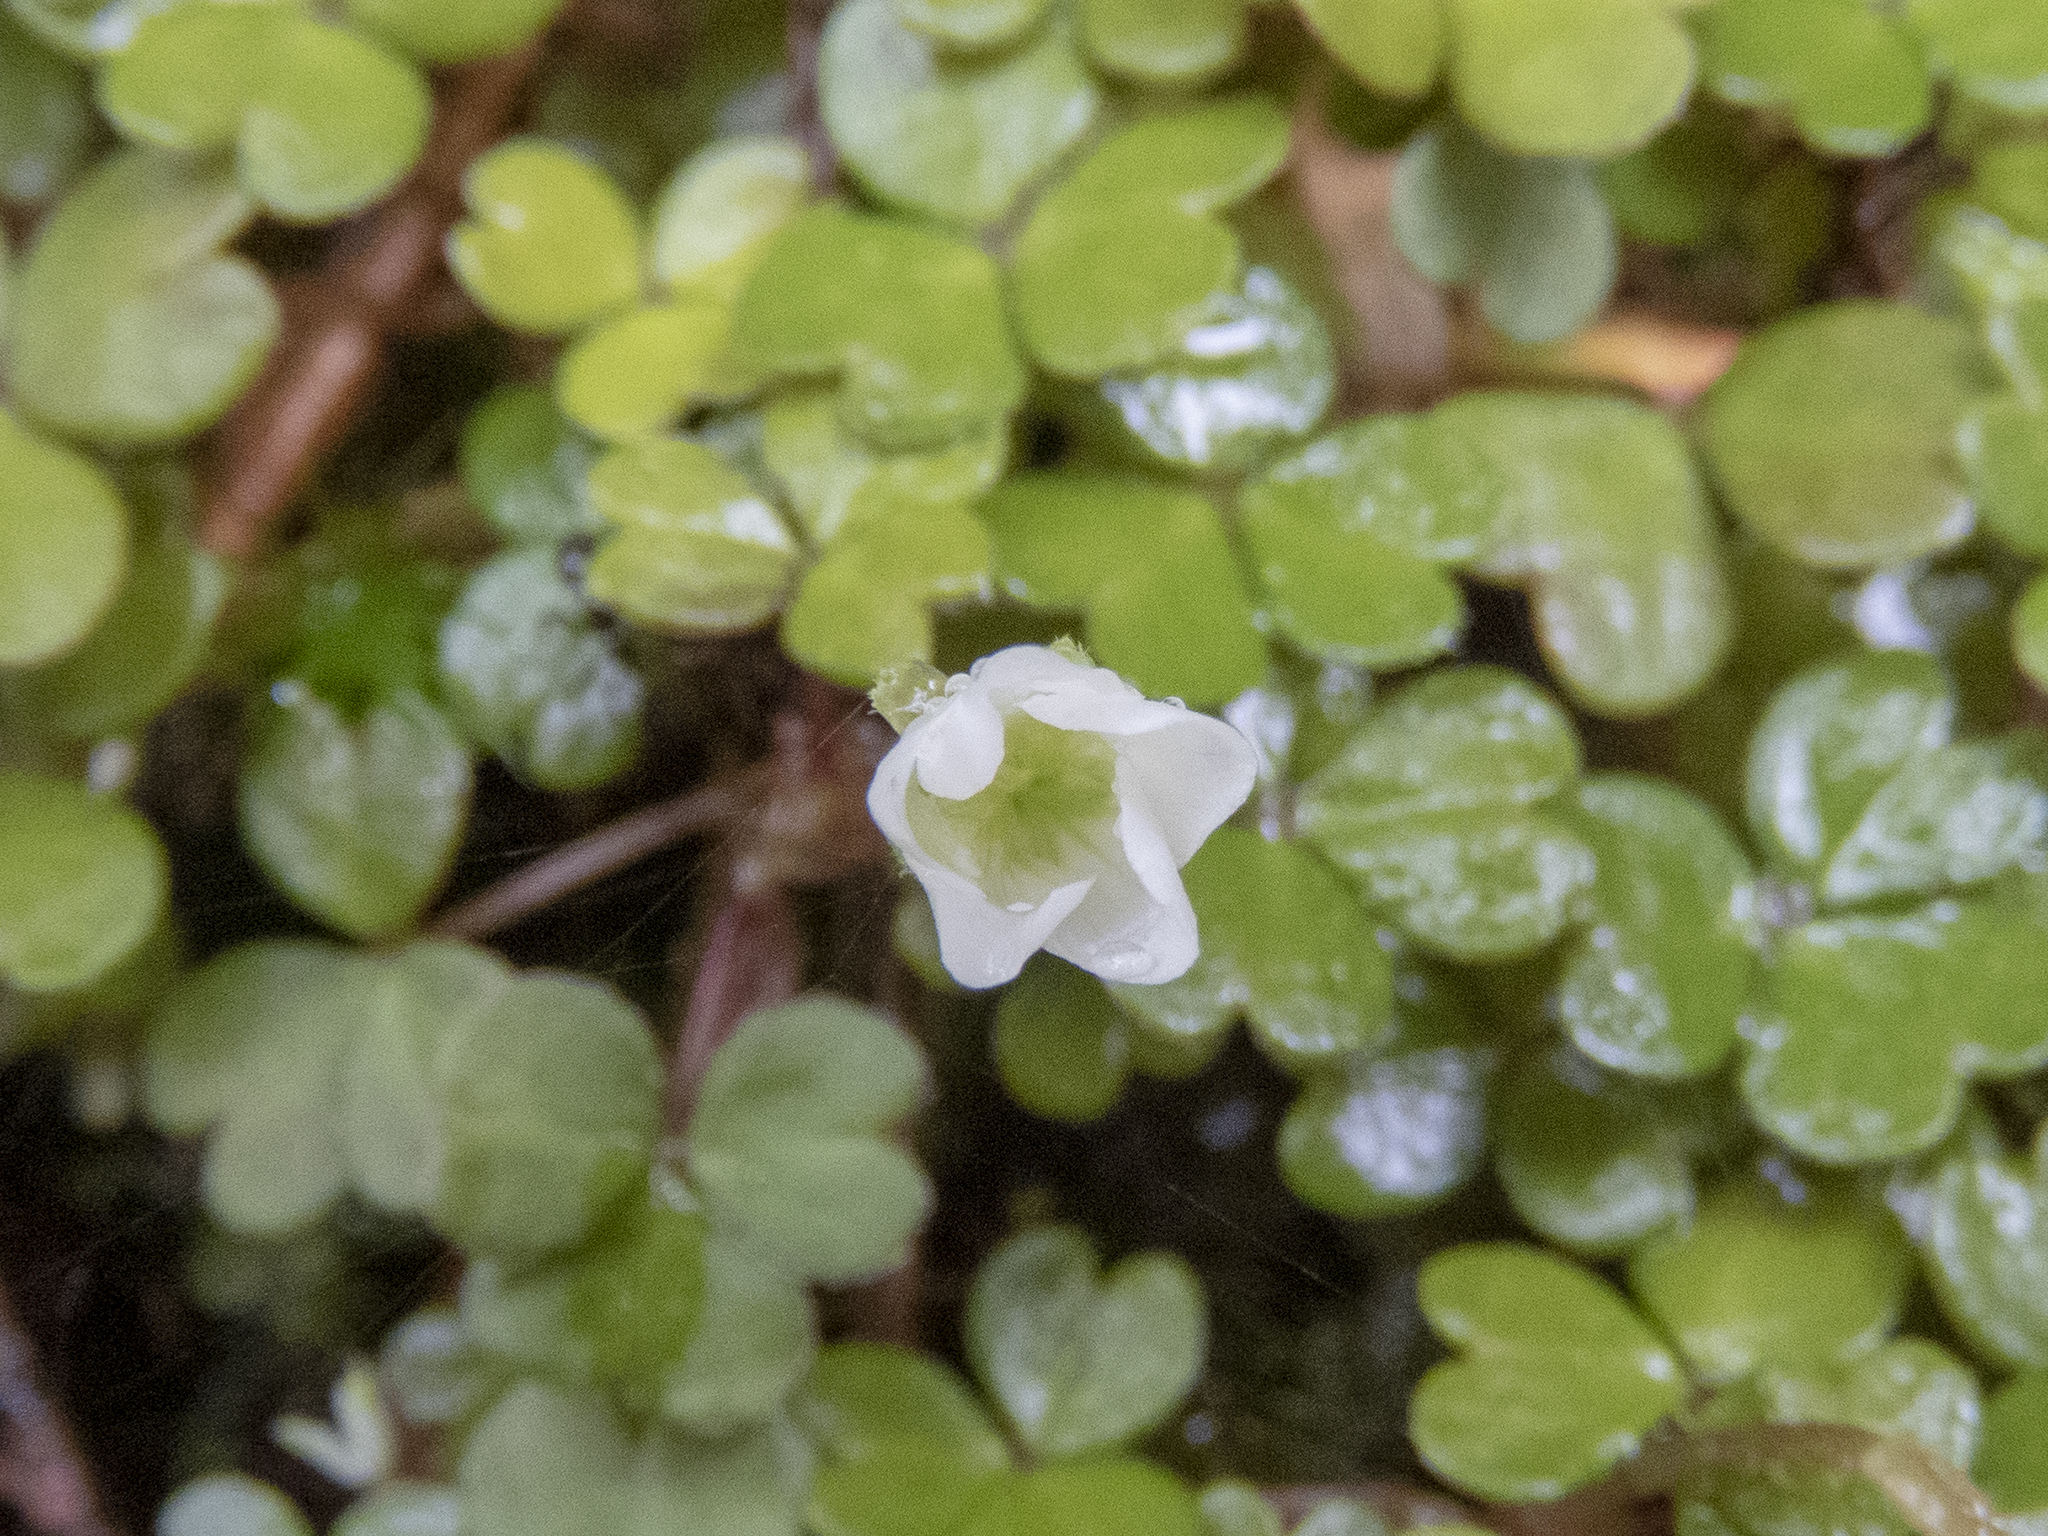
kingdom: Plantae
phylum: Tracheophyta
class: Magnoliopsida
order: Oxalidales
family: Oxalidaceae
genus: Oxalis
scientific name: Oxalis magellanica
